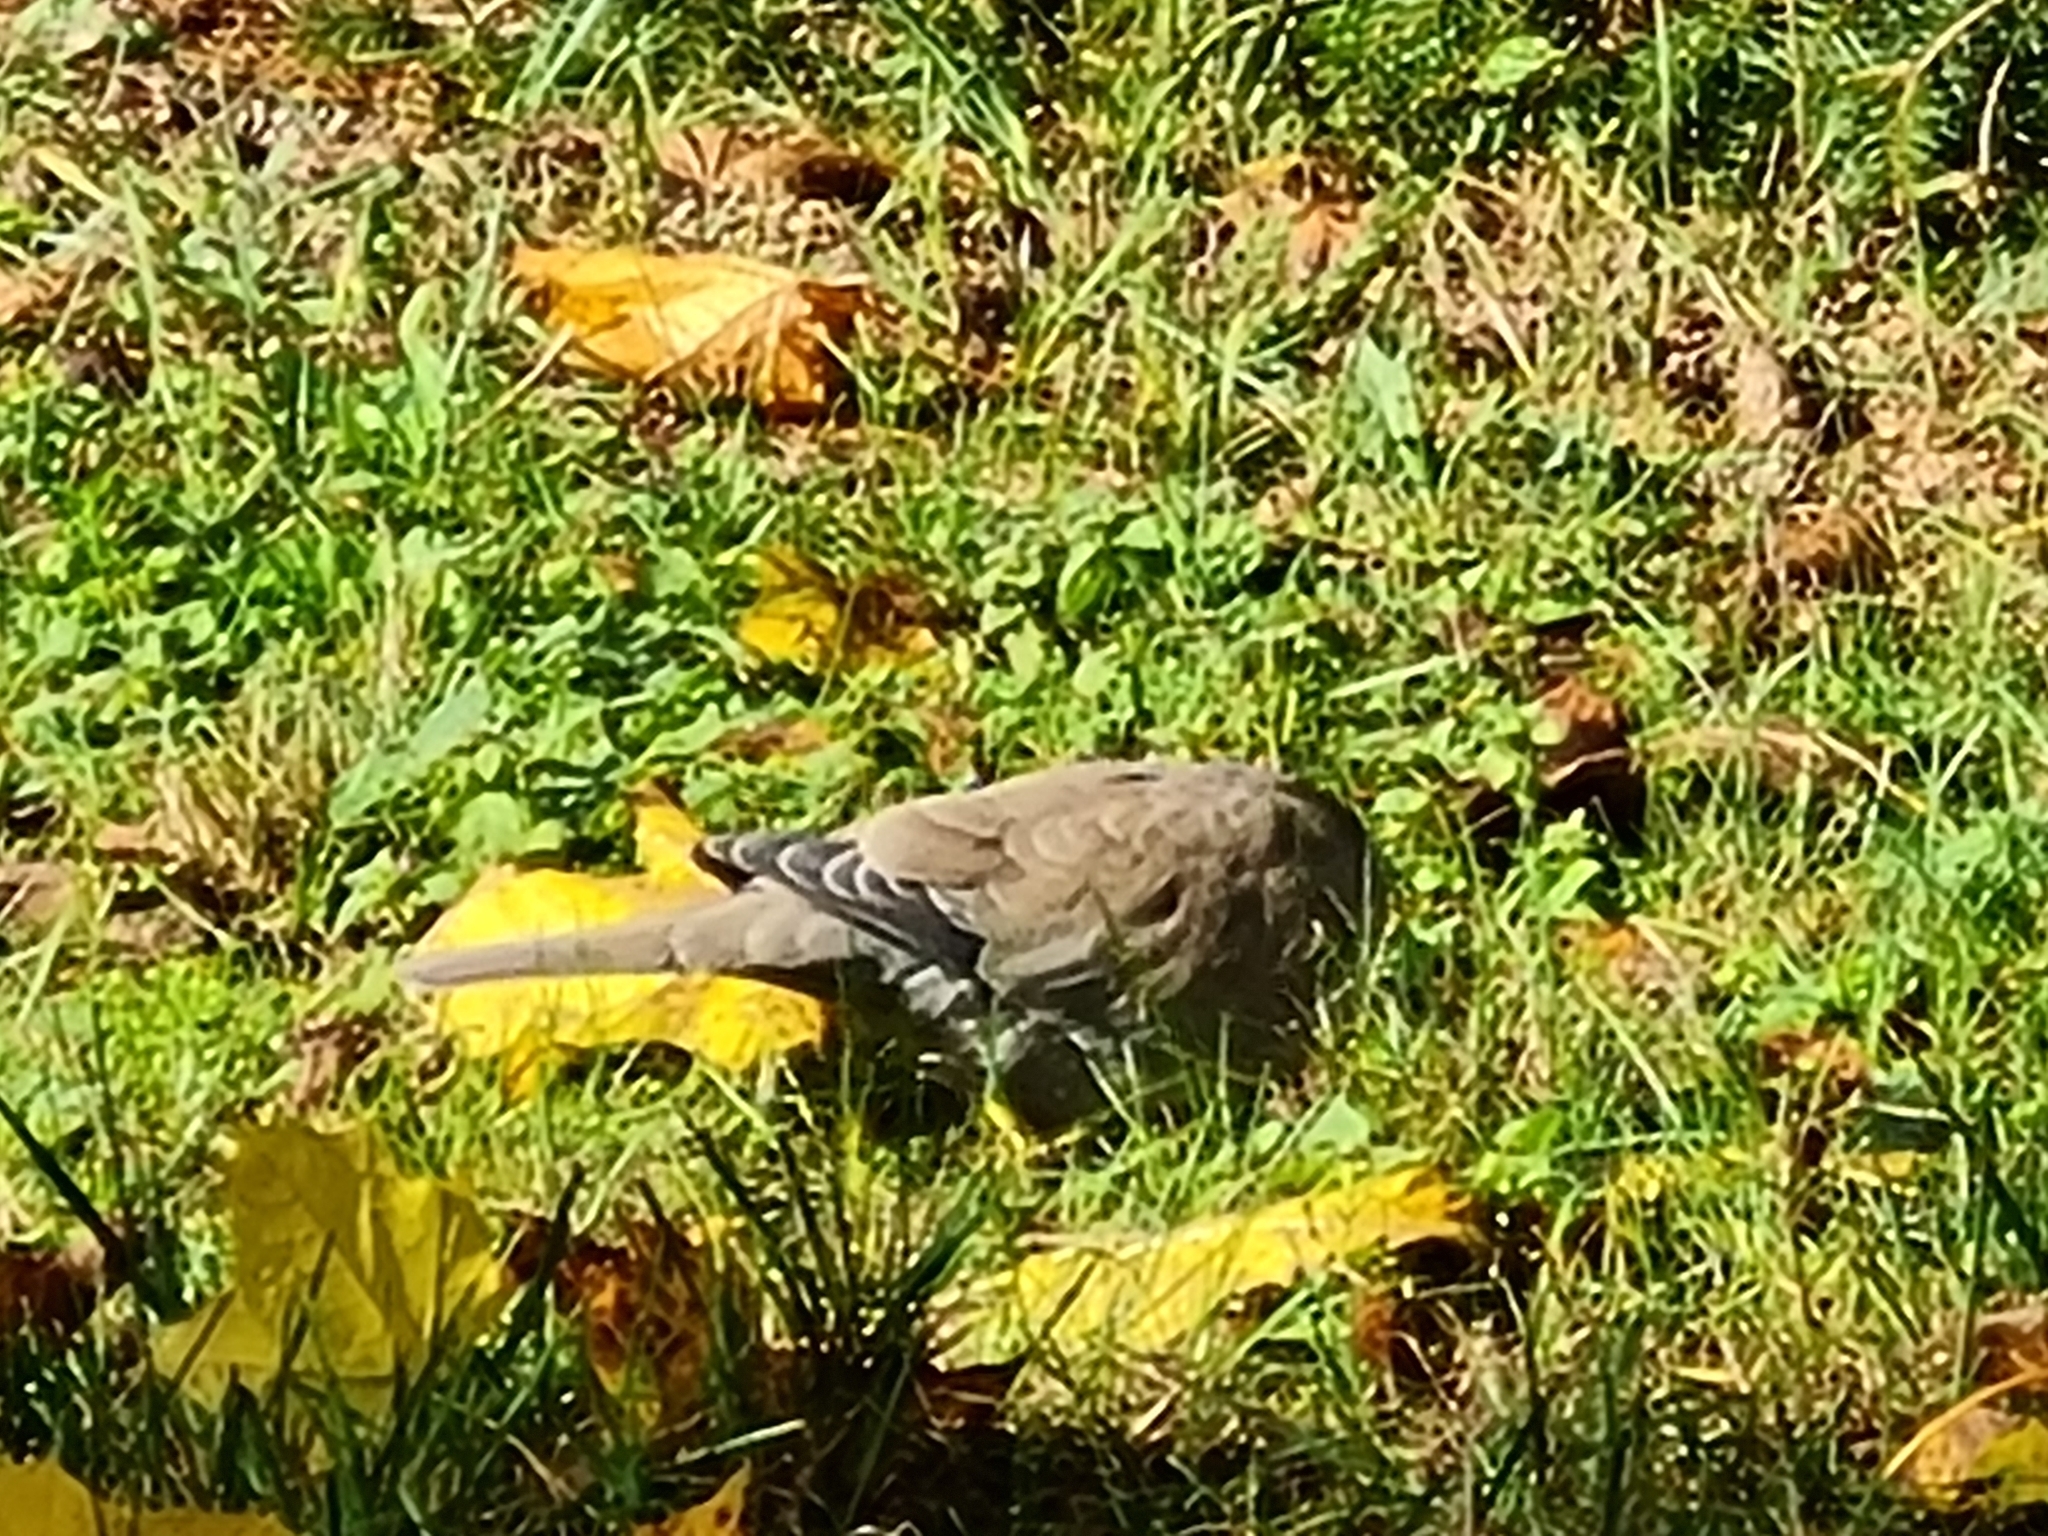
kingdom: Animalia
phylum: Chordata
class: Aves
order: Columbiformes
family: Columbidae
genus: Streptopelia
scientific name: Streptopelia decaocto
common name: Eurasian collared dove
